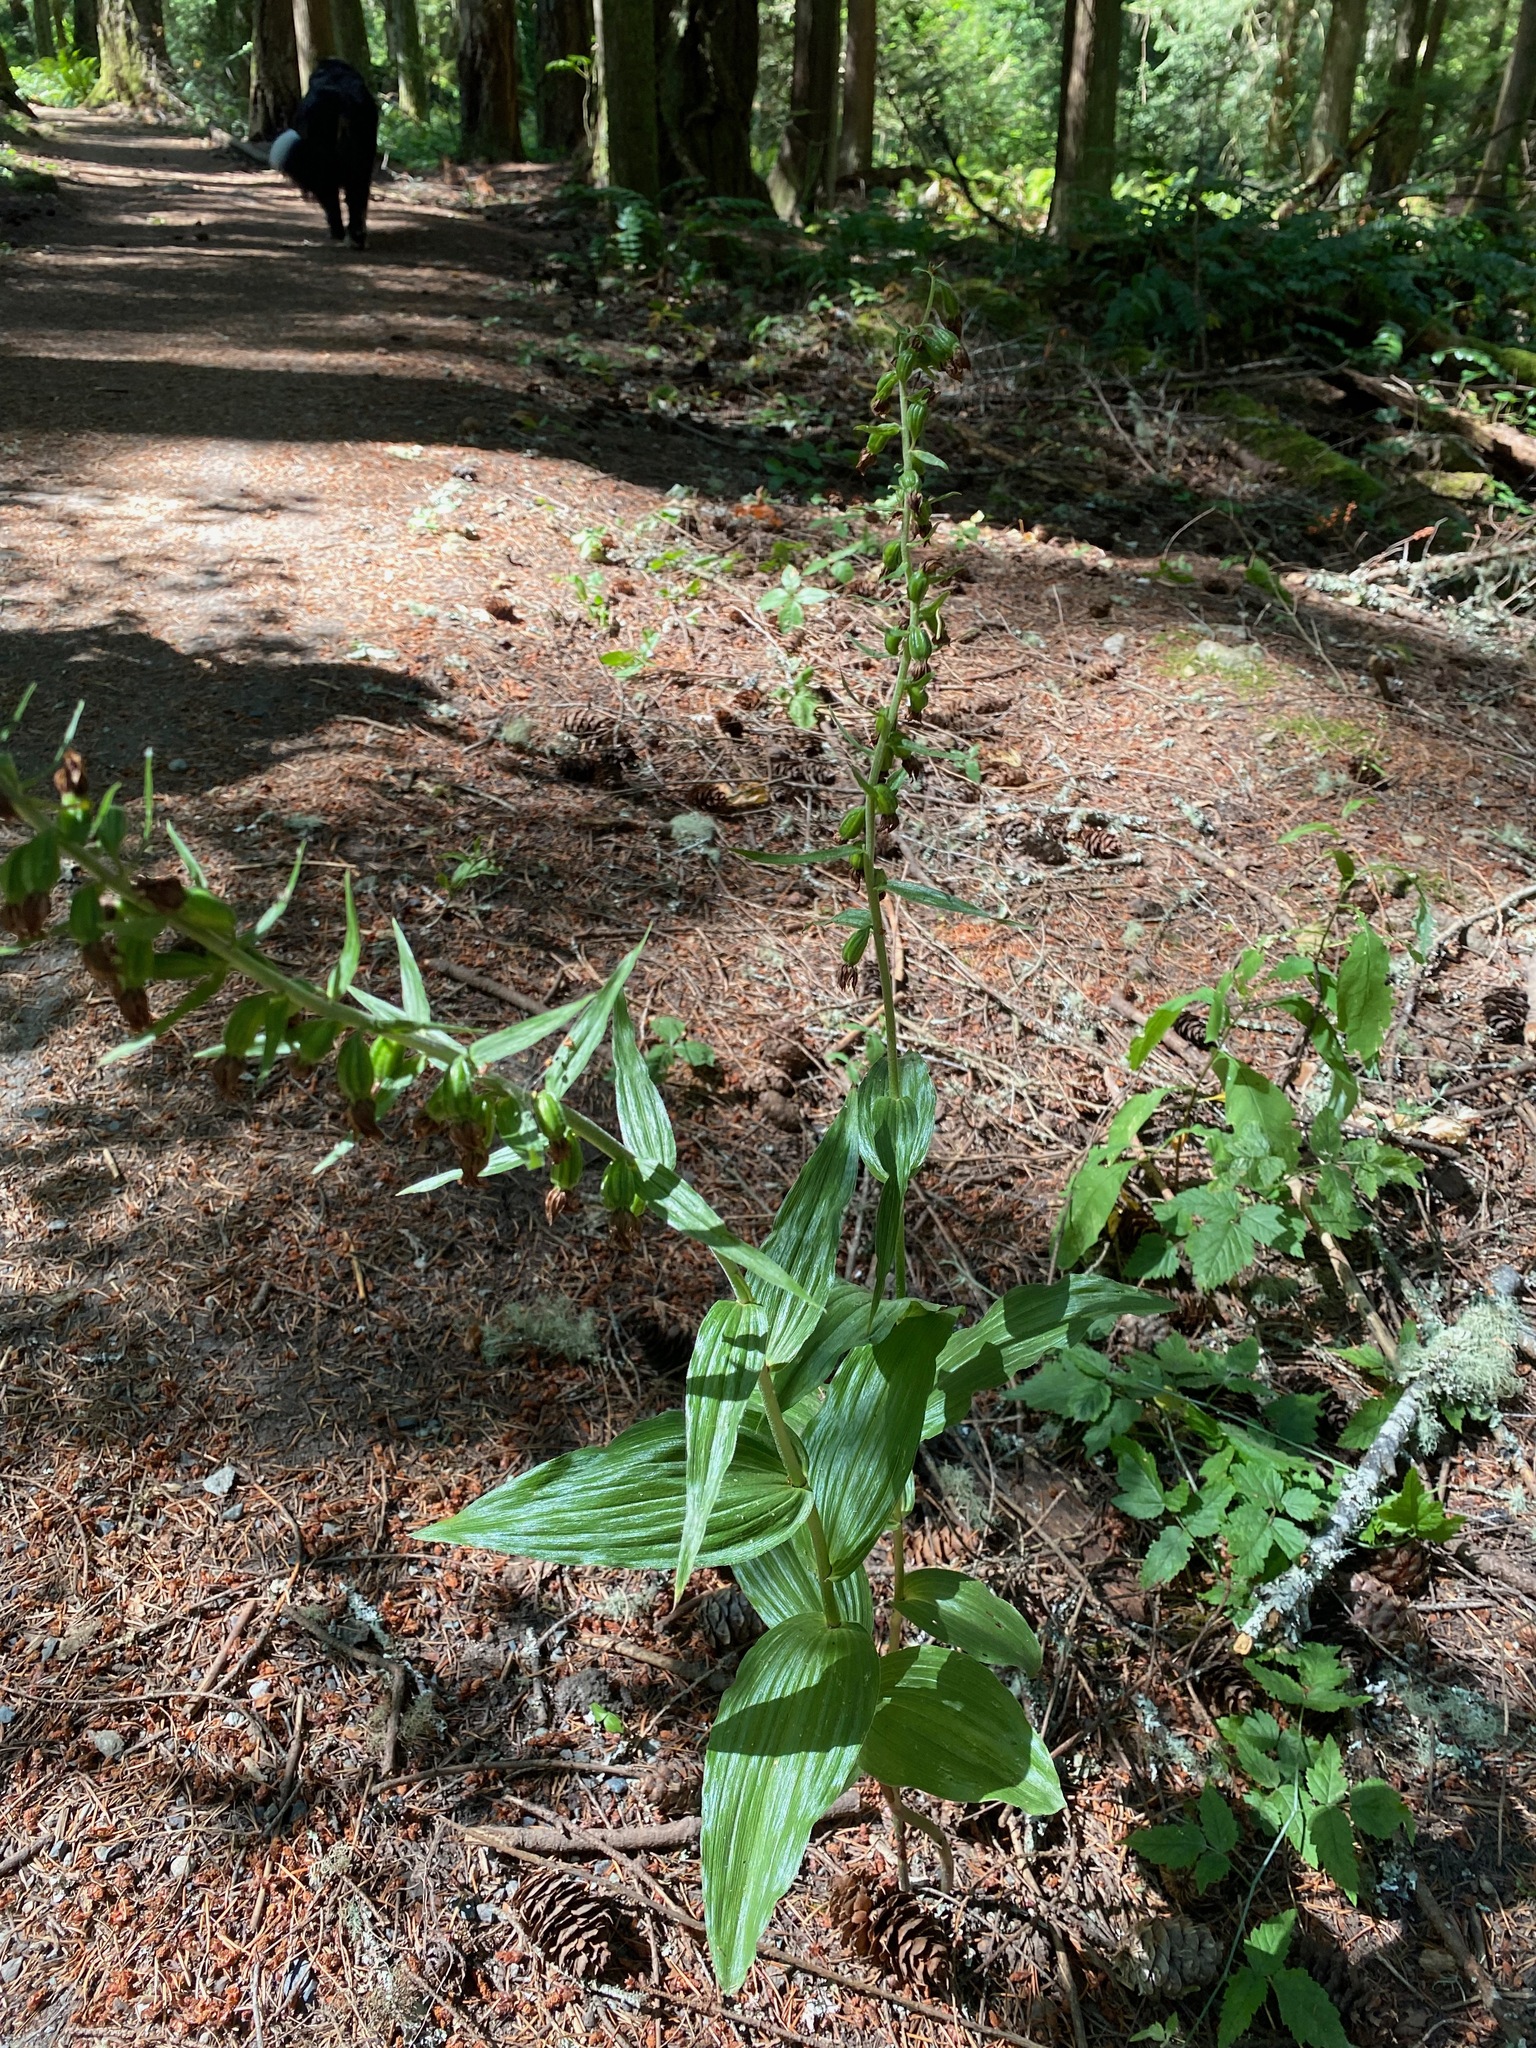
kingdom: Plantae
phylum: Tracheophyta
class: Liliopsida
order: Asparagales
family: Orchidaceae
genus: Epipactis
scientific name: Epipactis helleborine
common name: Broad-leaved helleborine
